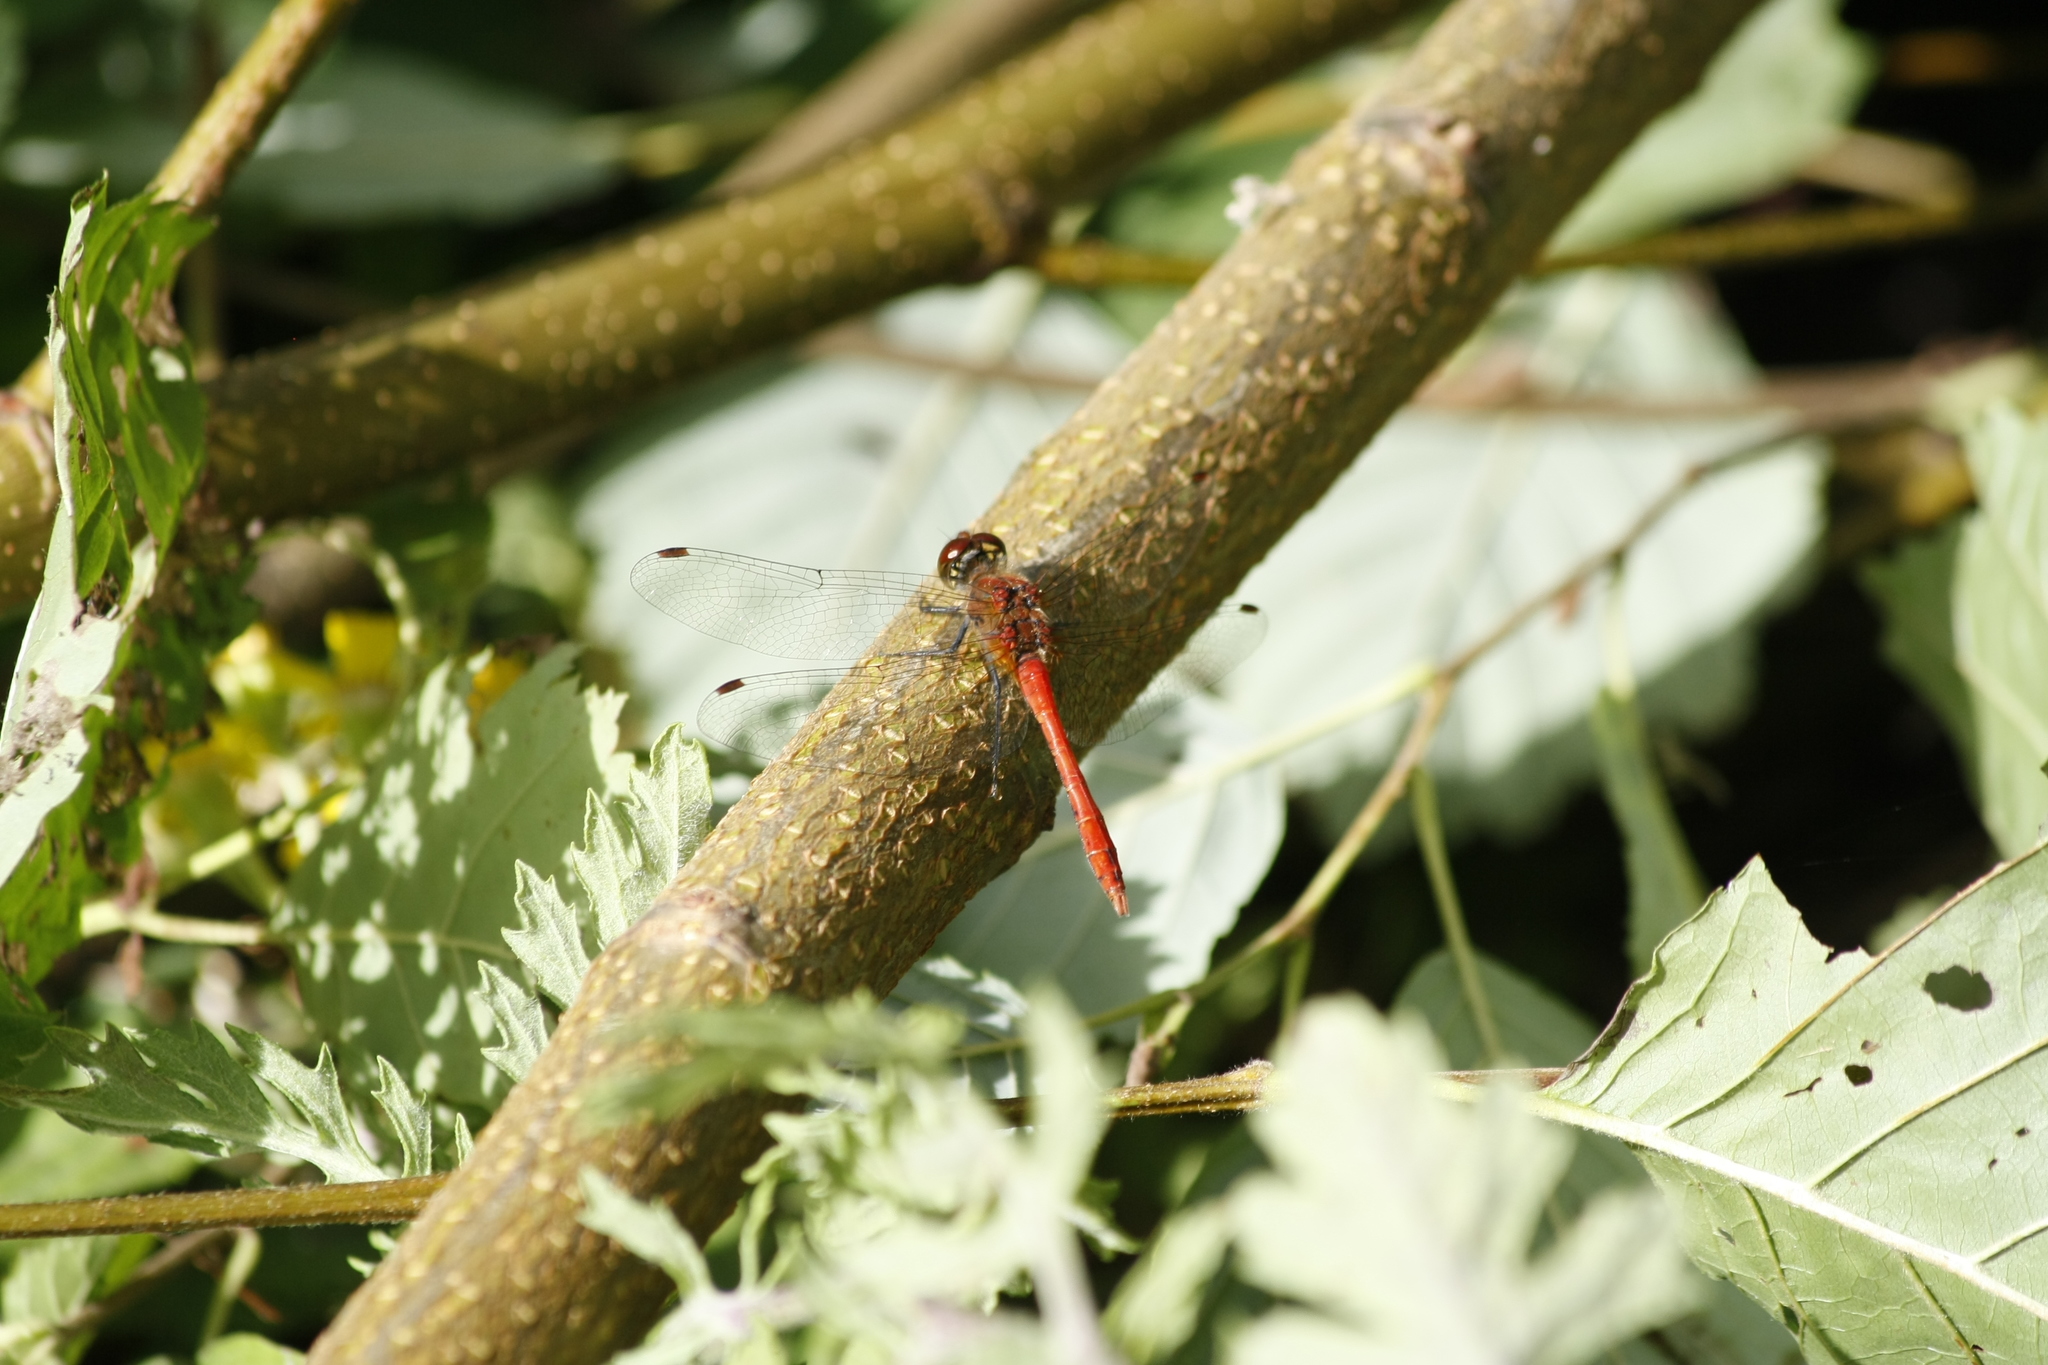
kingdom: Animalia
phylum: Arthropoda
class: Insecta
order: Odonata
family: Libellulidae
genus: Sympetrum
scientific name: Sympetrum sanguineum
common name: Ruddy darter
